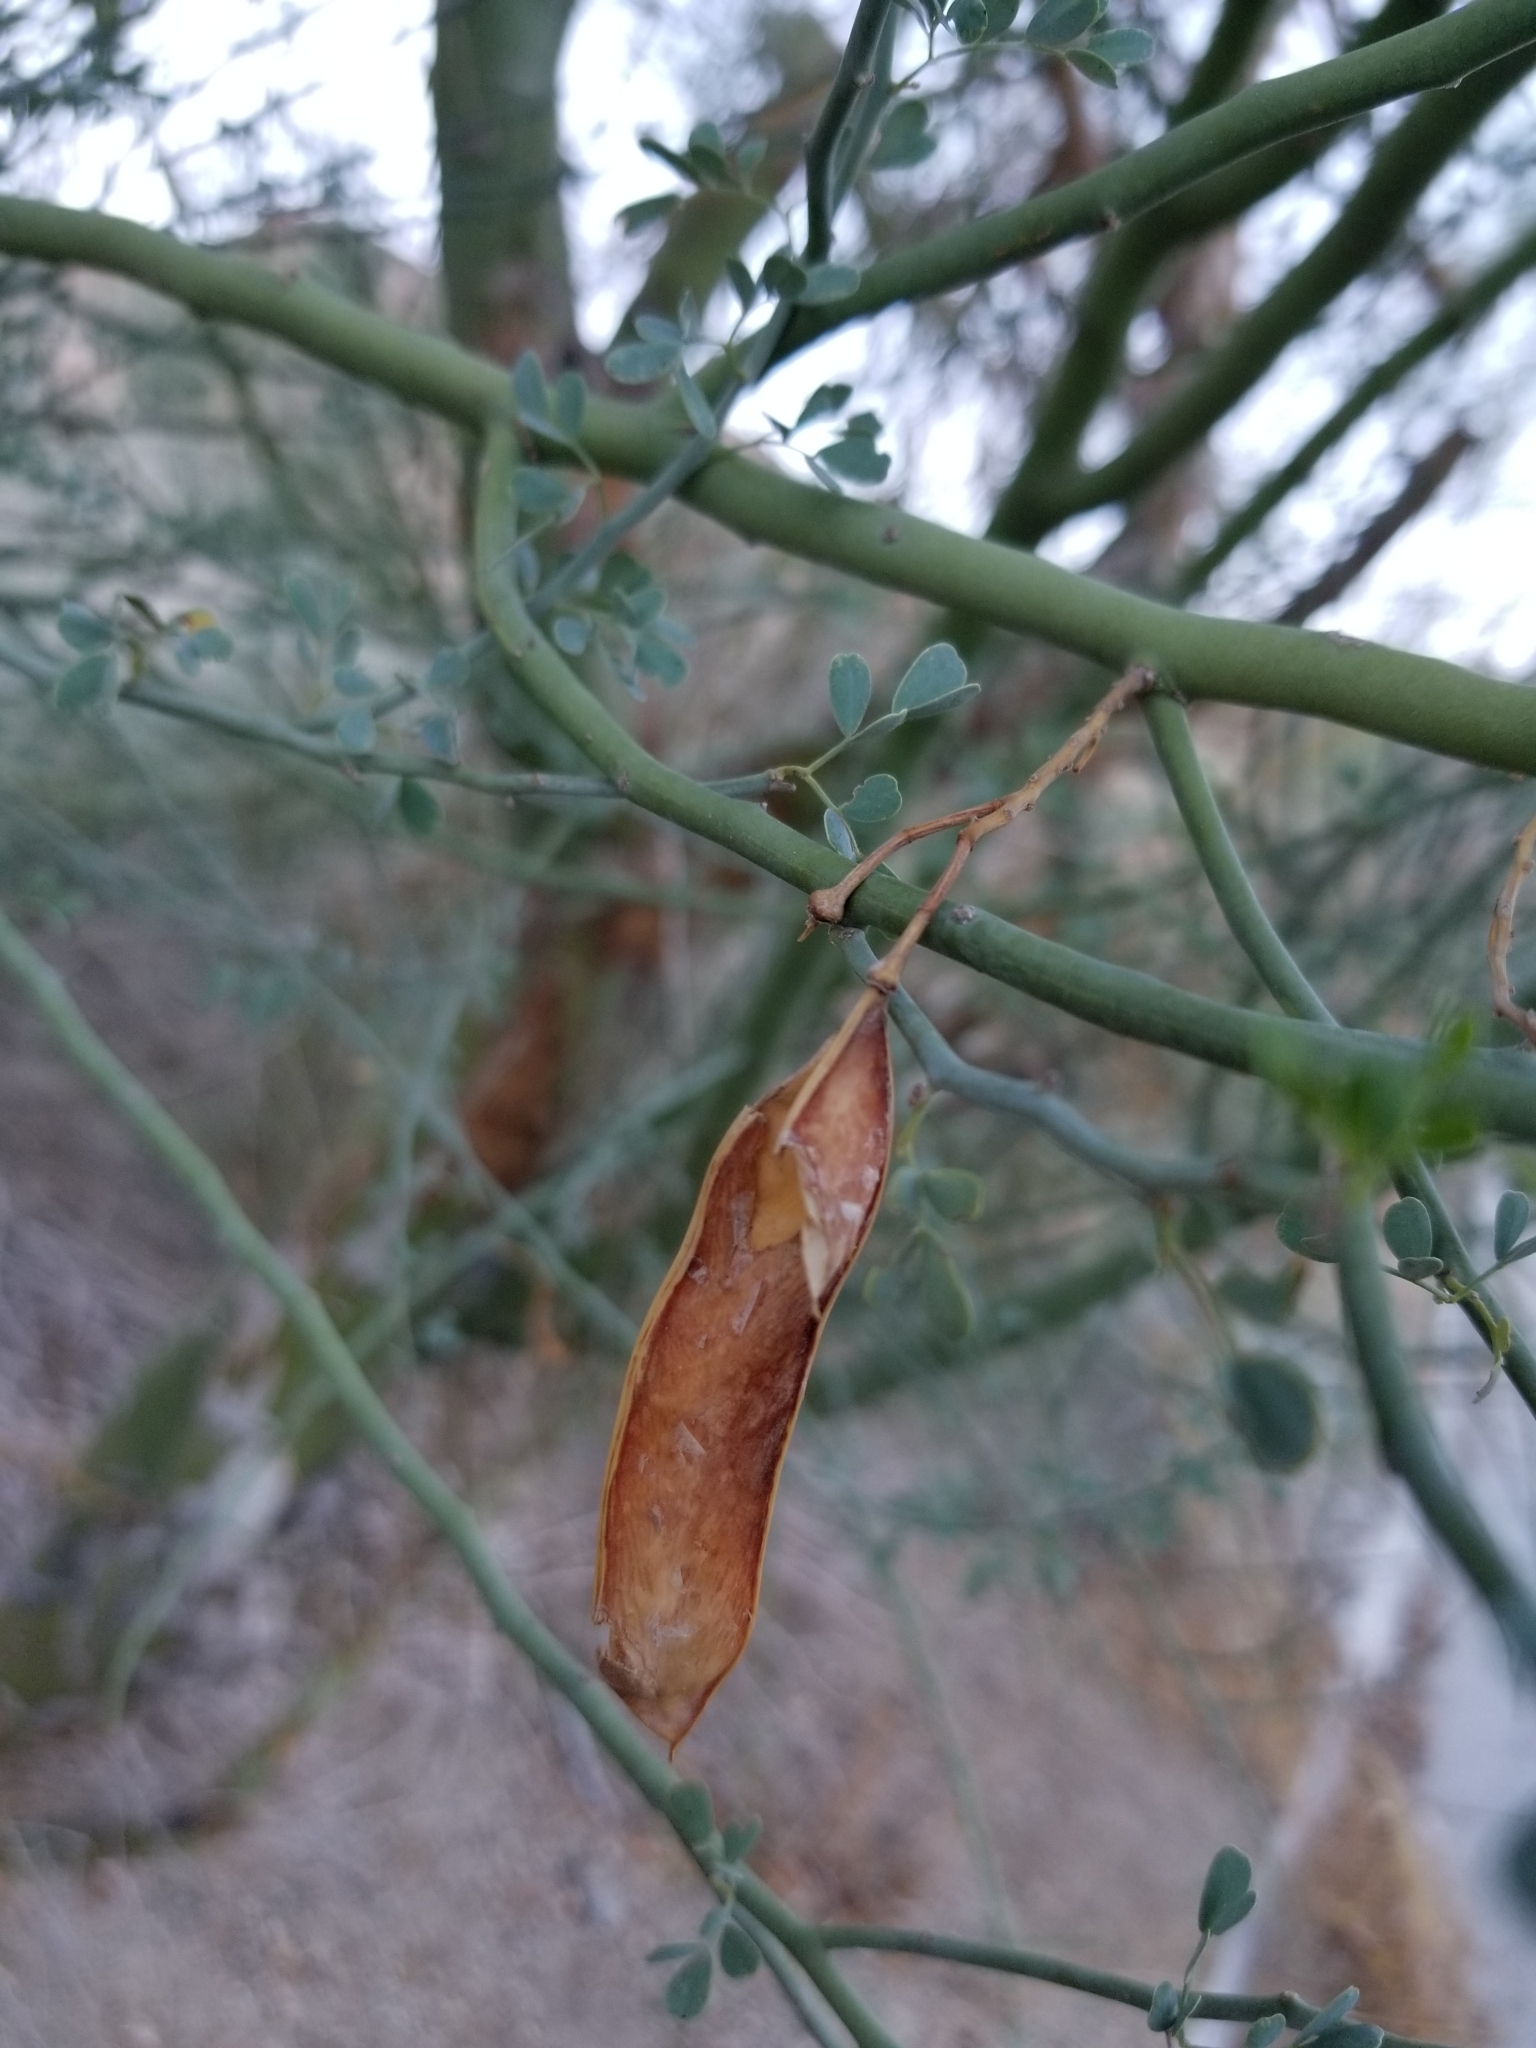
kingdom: Plantae
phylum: Tracheophyta
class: Magnoliopsida
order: Fabales
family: Fabaceae
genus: Parkinsonia
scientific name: Parkinsonia florida
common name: Blue paloverde
